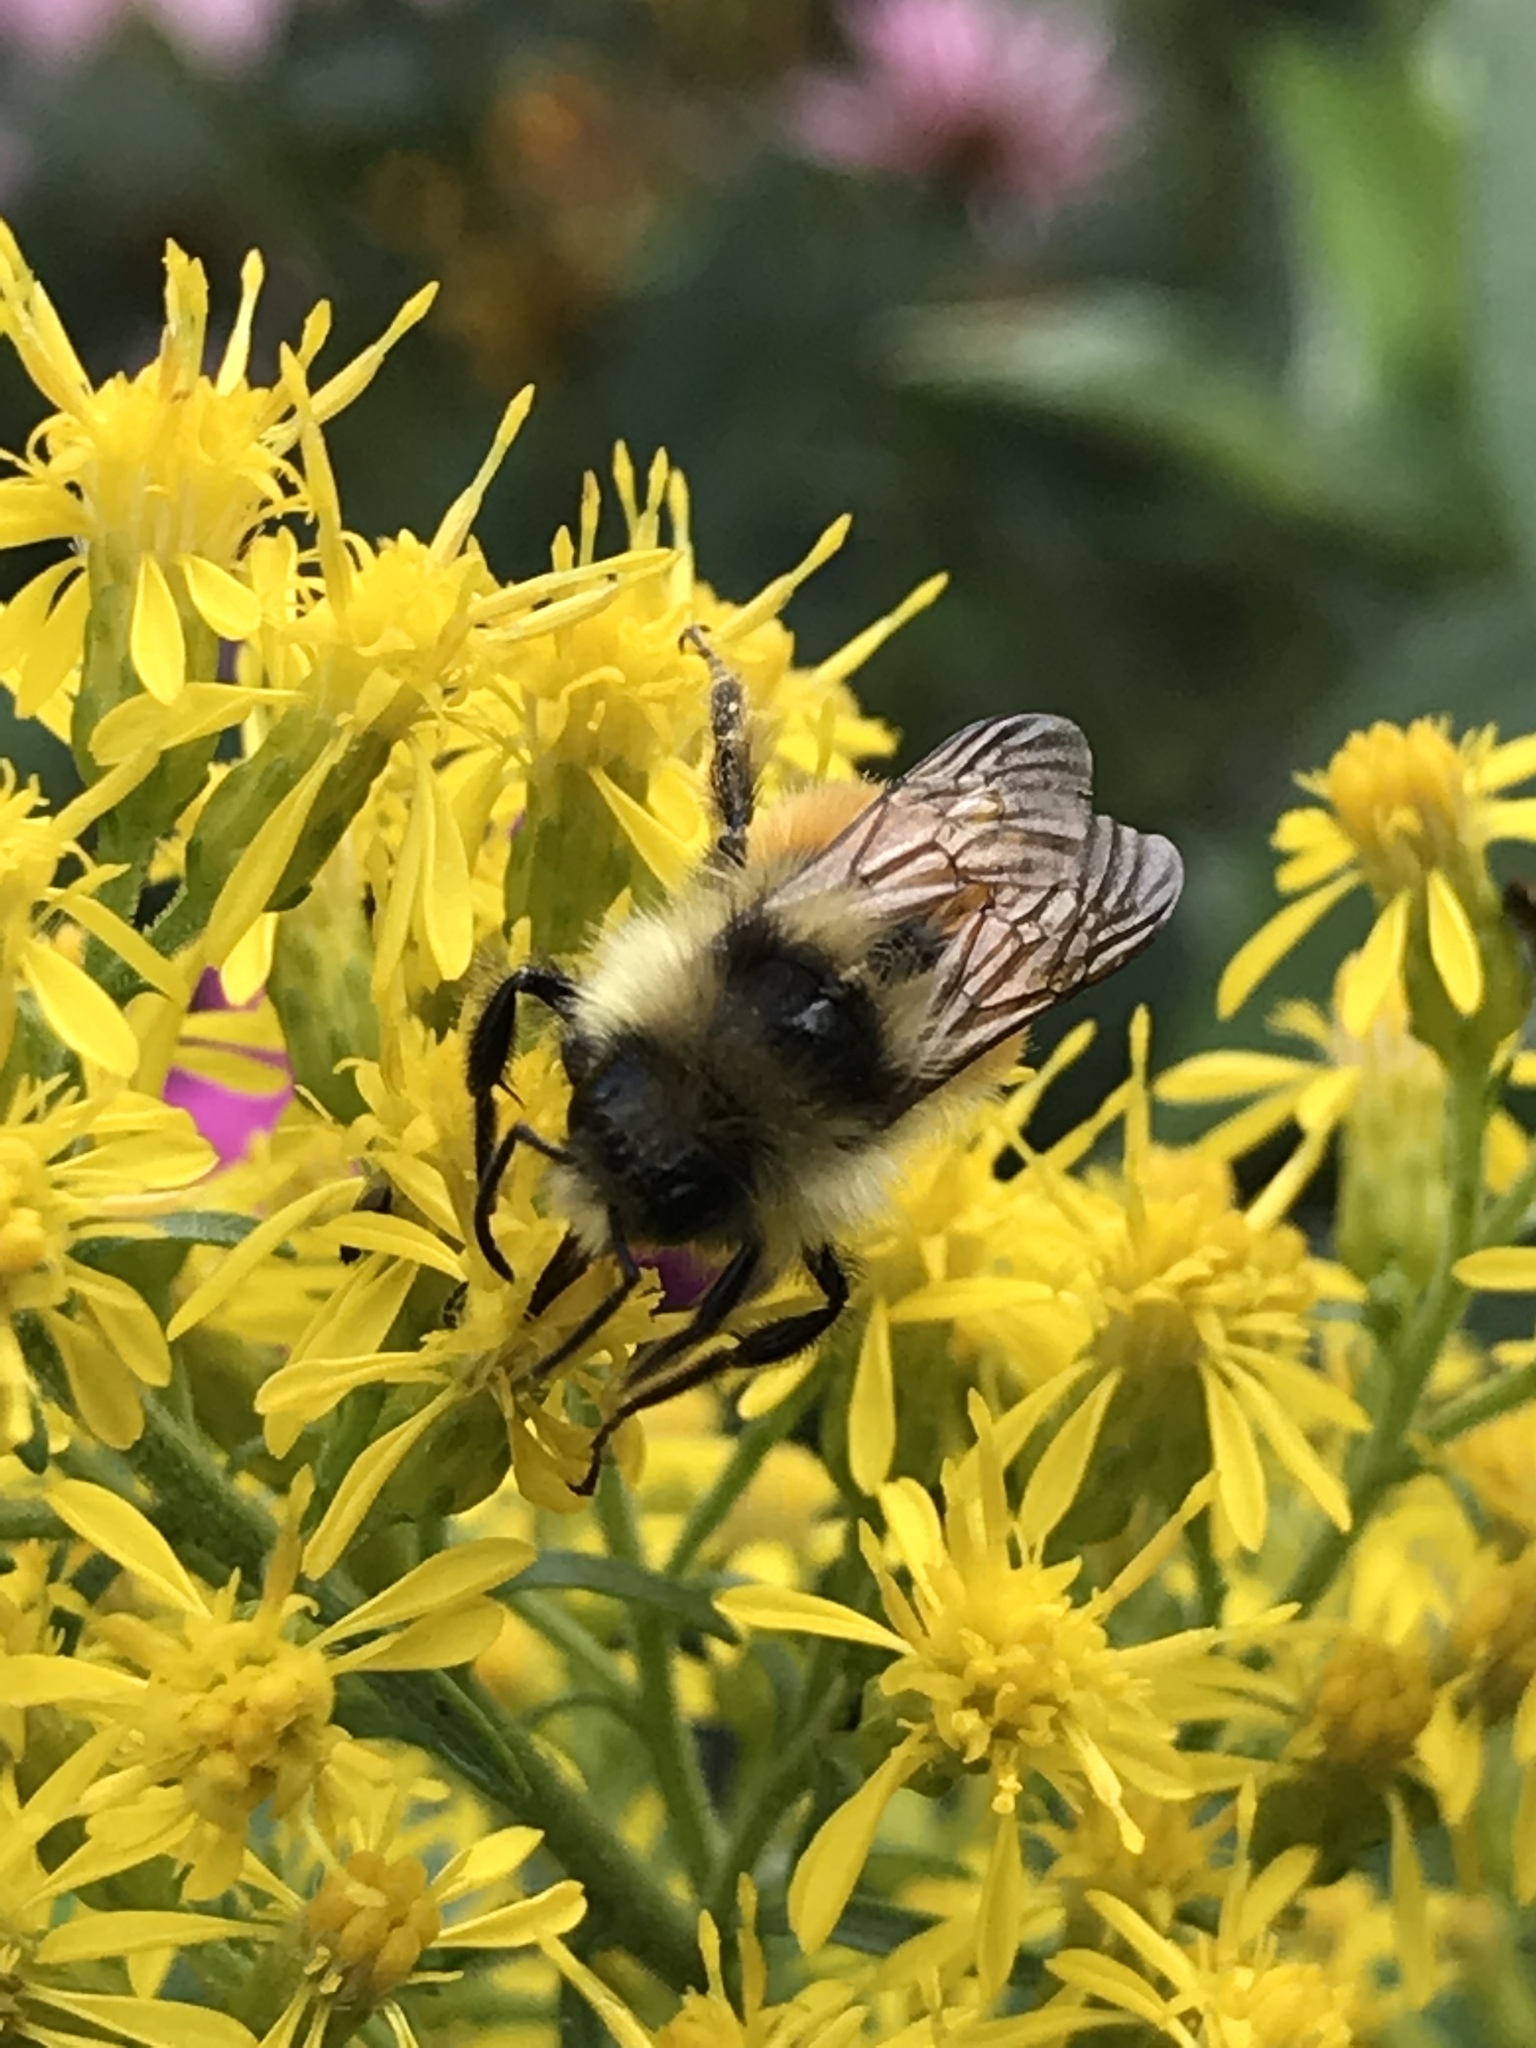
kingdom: Animalia
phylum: Arthropoda
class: Insecta
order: Hymenoptera
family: Apidae
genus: Bombus
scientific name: Bombus ternarius
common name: Tri-colored bumble bee
